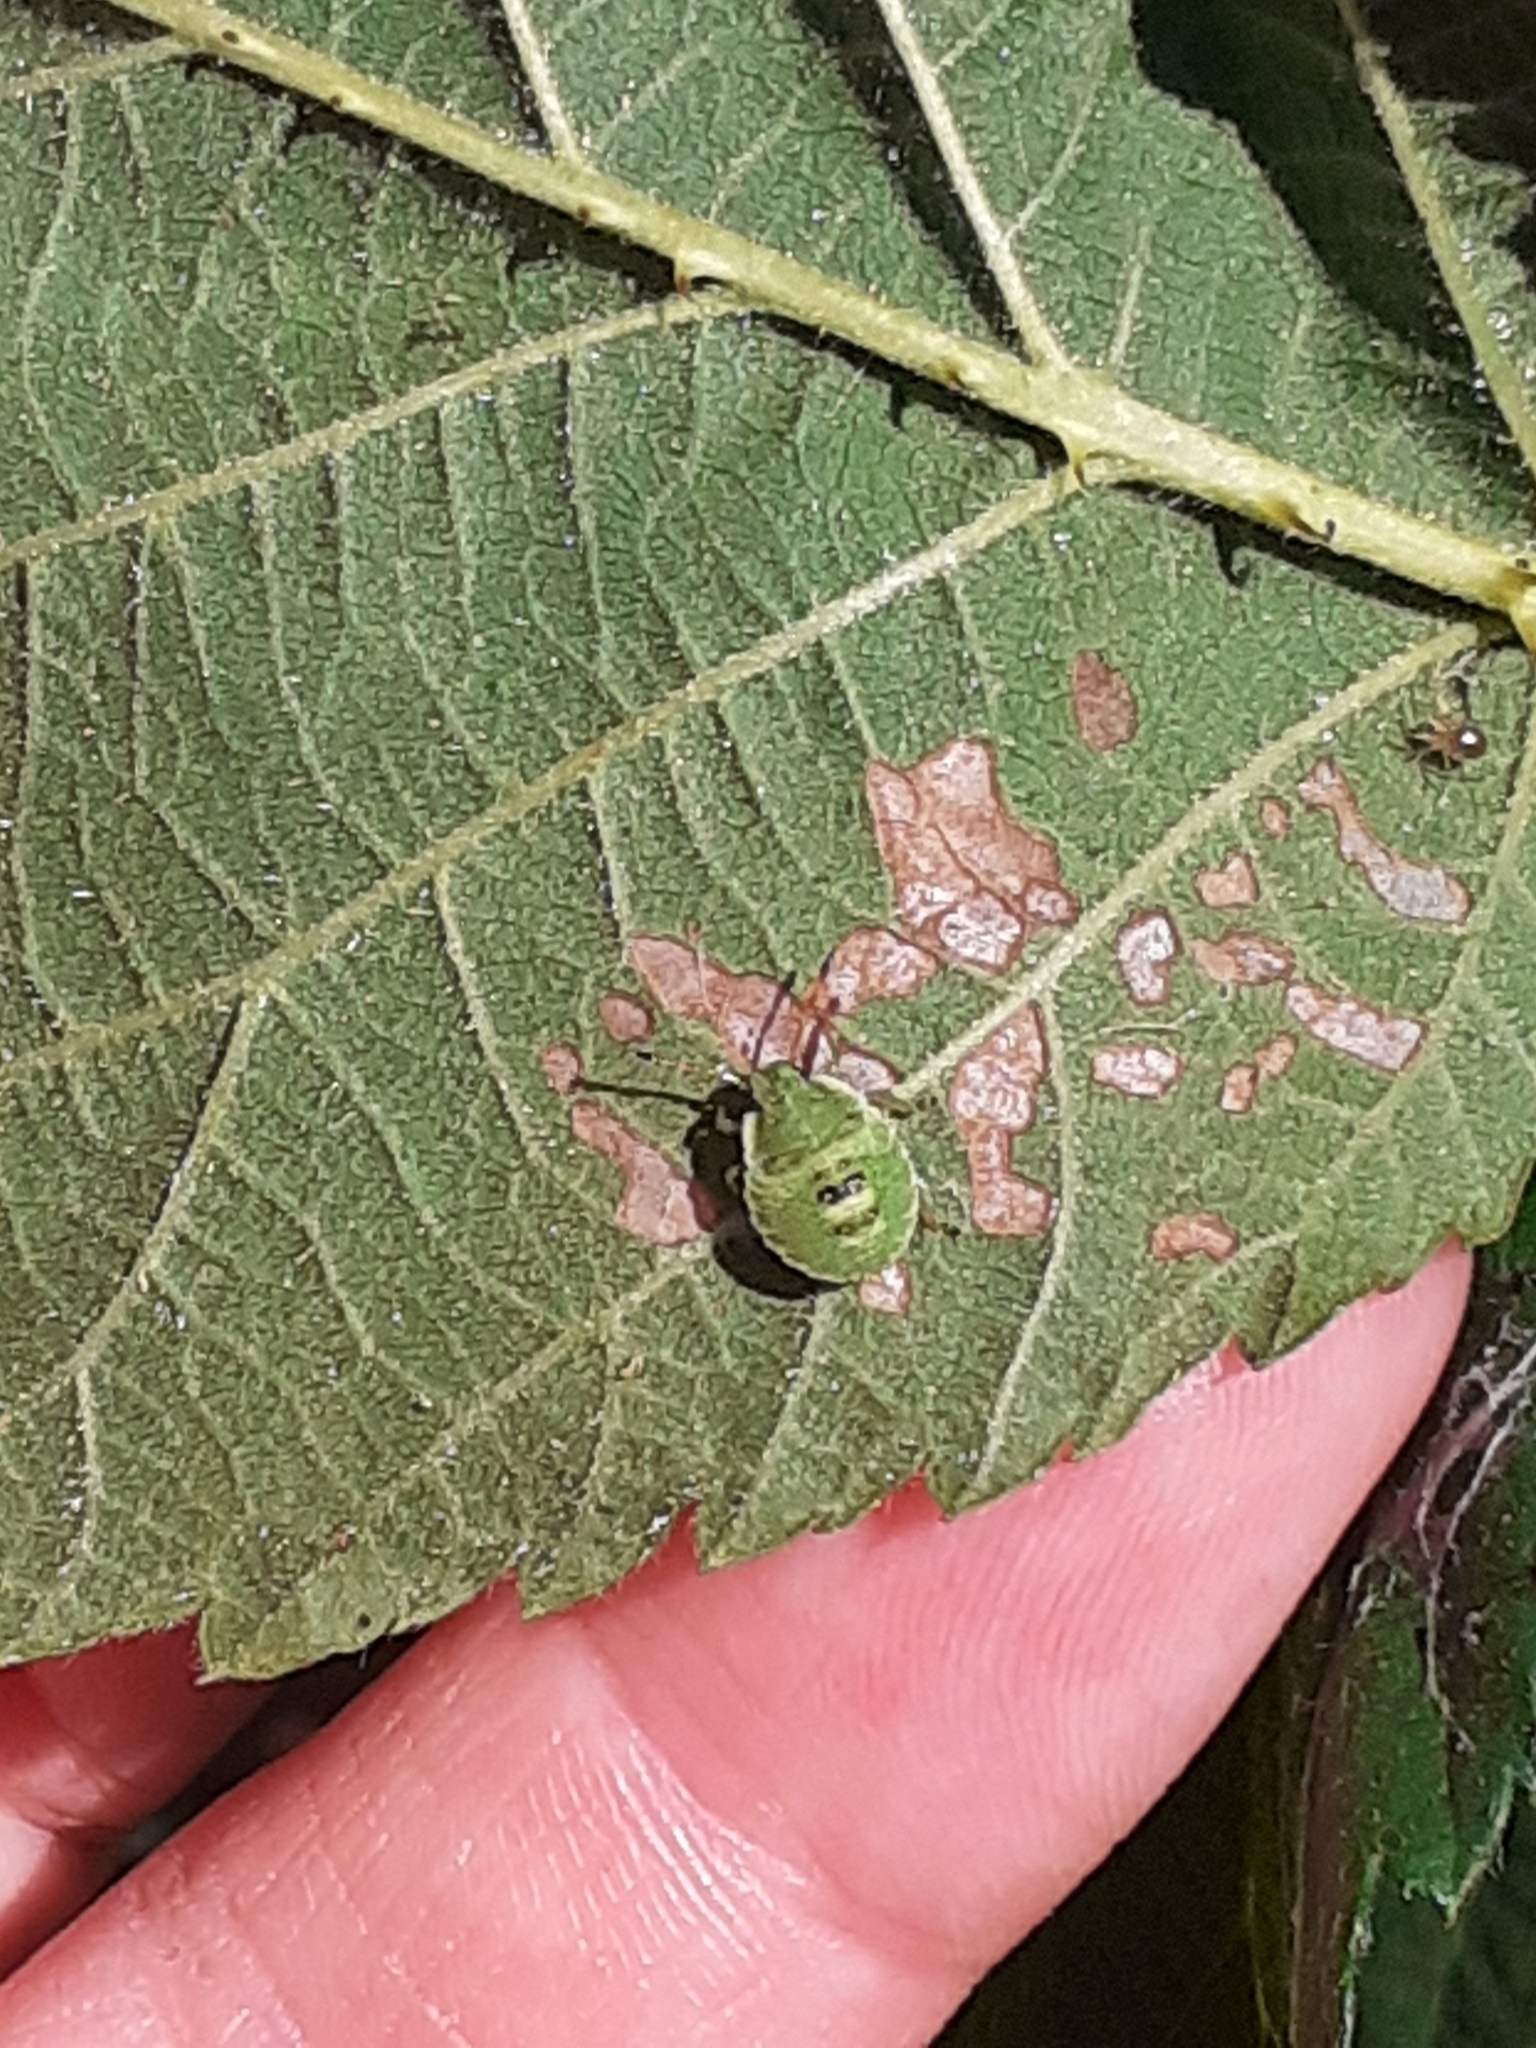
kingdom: Animalia
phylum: Arthropoda
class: Insecta
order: Hemiptera
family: Pentatomidae
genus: Palomena
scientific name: Palomena prasina
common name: Green shieldbug
